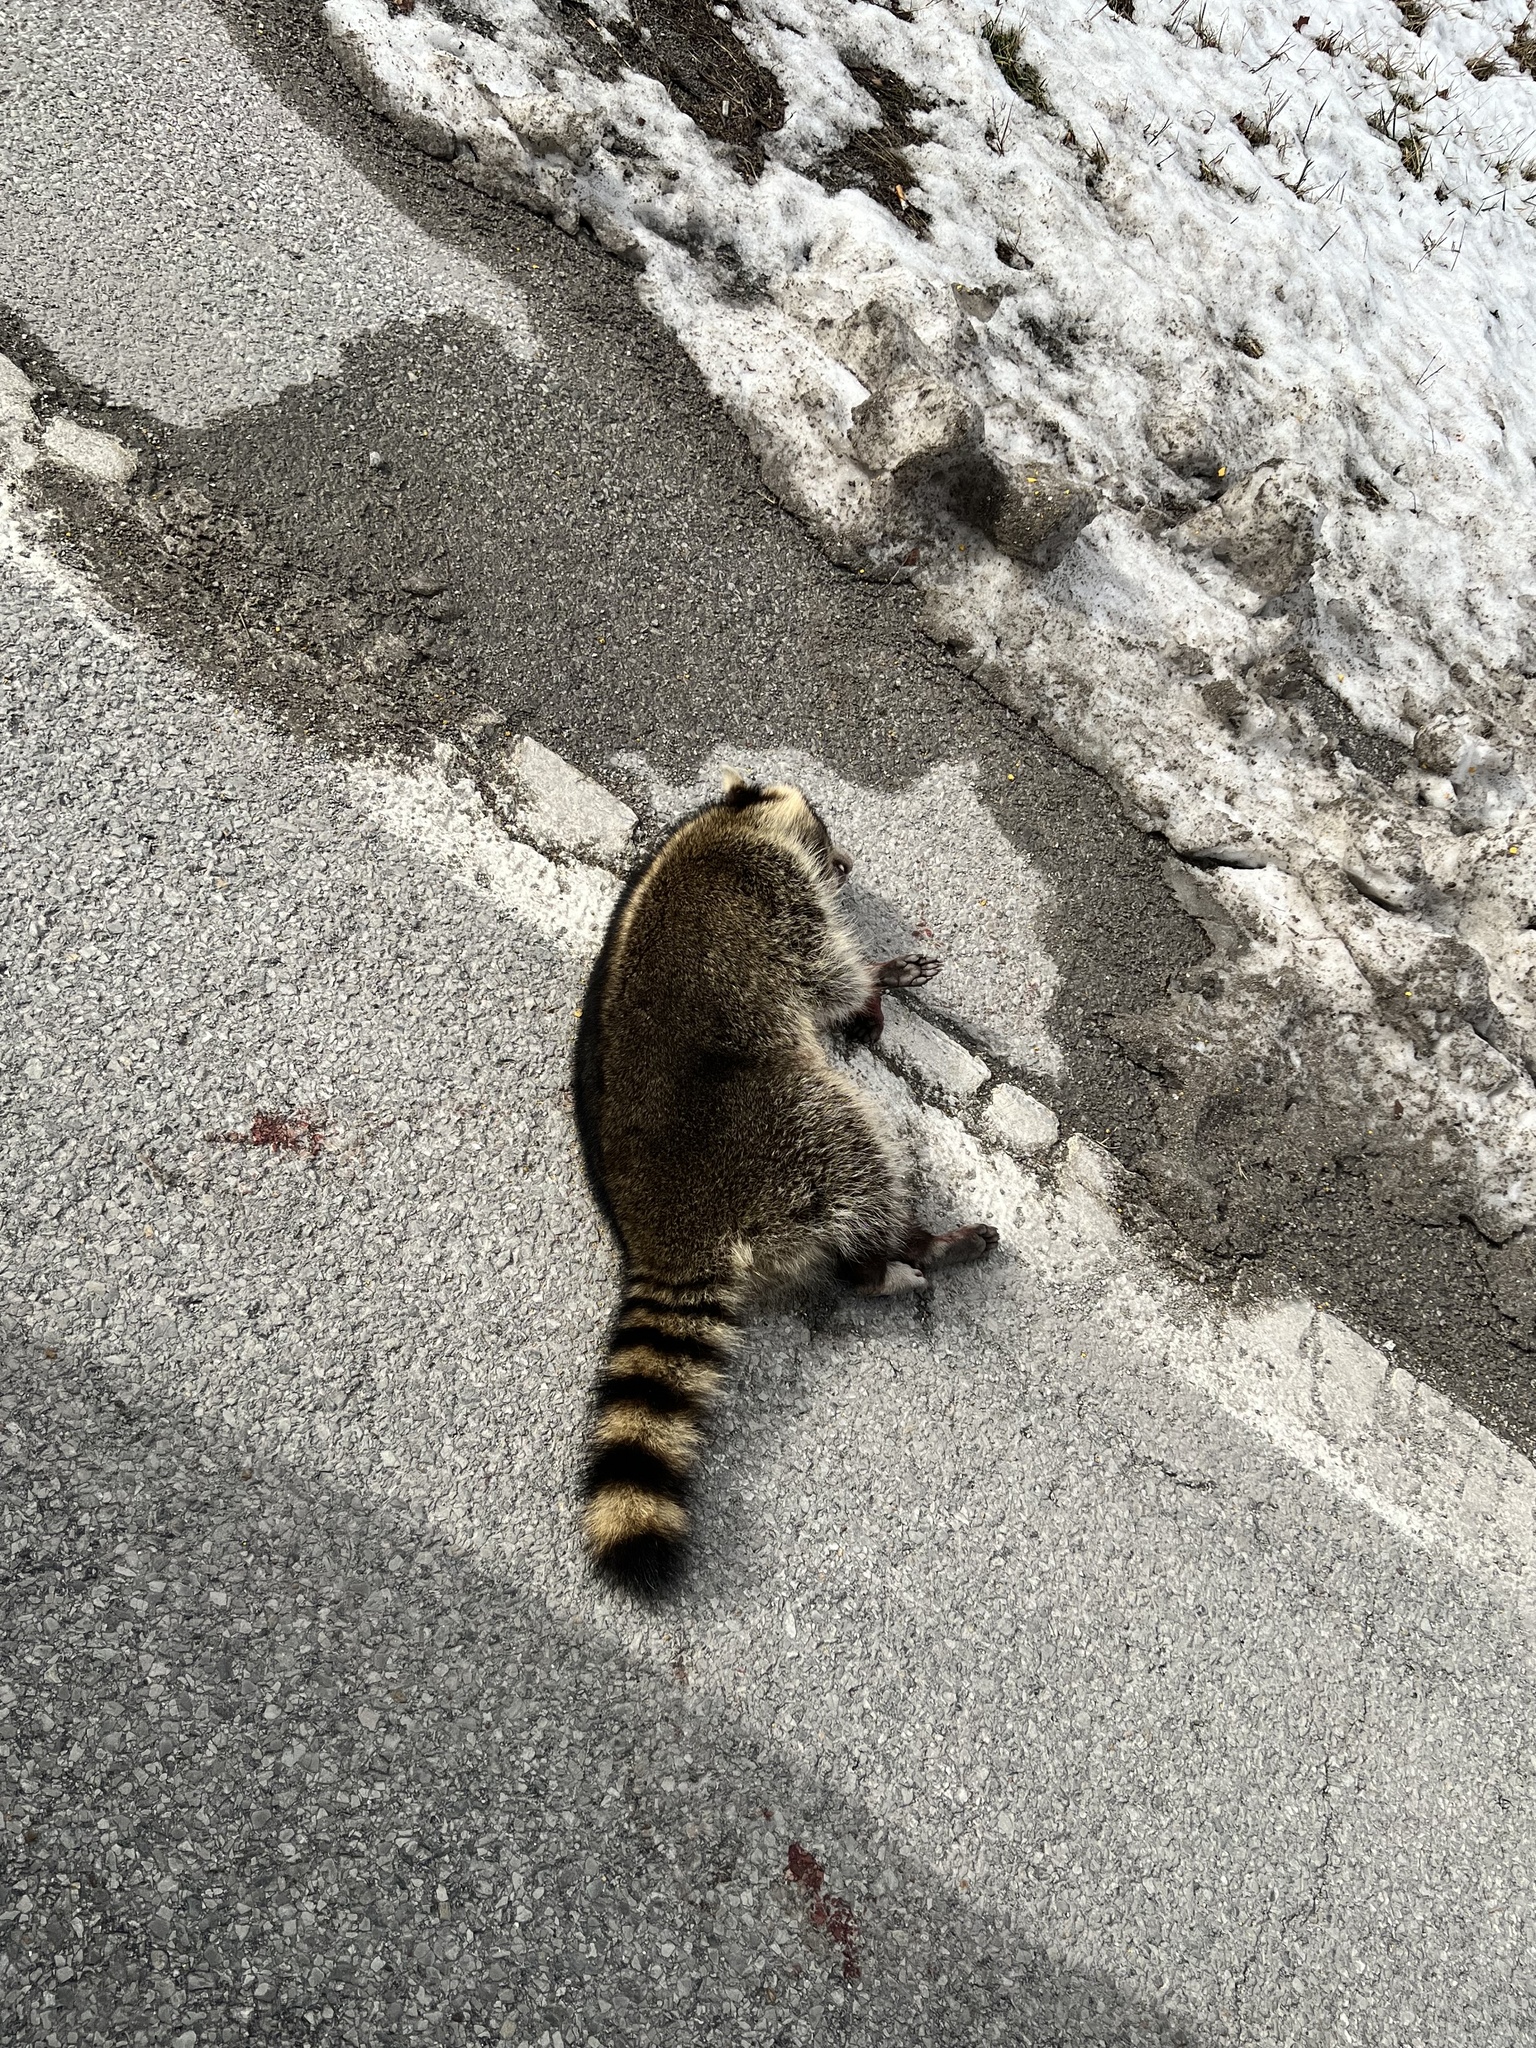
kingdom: Animalia
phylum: Chordata
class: Mammalia
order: Carnivora
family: Procyonidae
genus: Procyon
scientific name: Procyon lotor
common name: Raccoon
